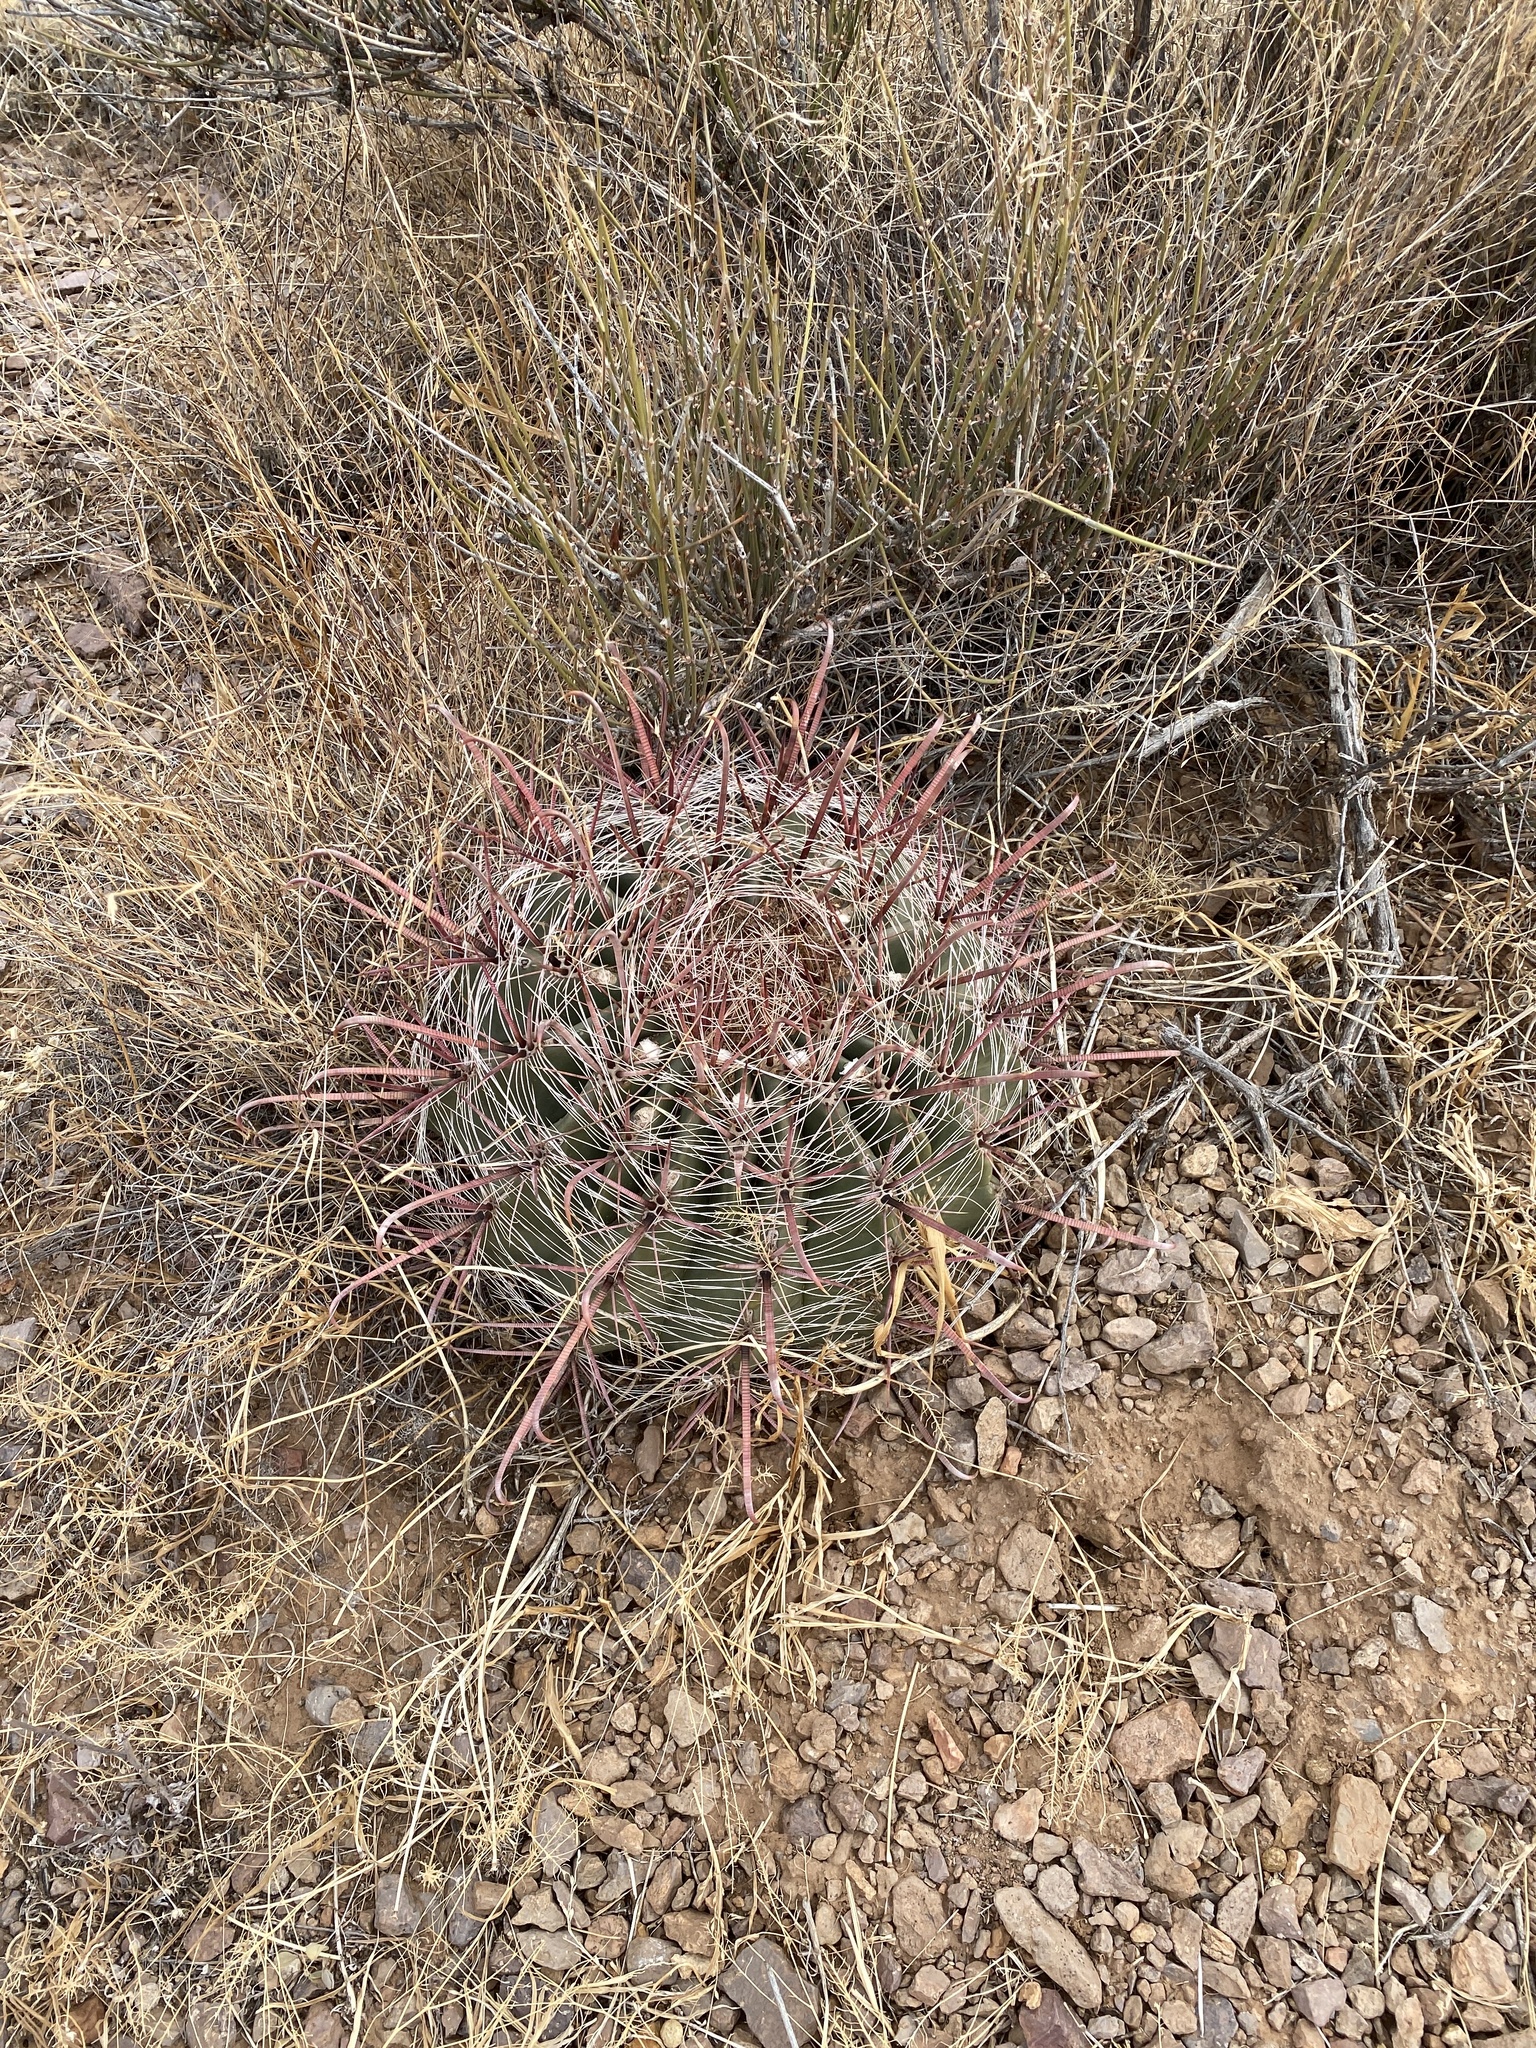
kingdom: Plantae
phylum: Tracheophyta
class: Magnoliopsida
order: Caryophyllales
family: Cactaceae
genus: Ferocactus
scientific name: Ferocactus wislizeni
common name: Candy barrel cactus
